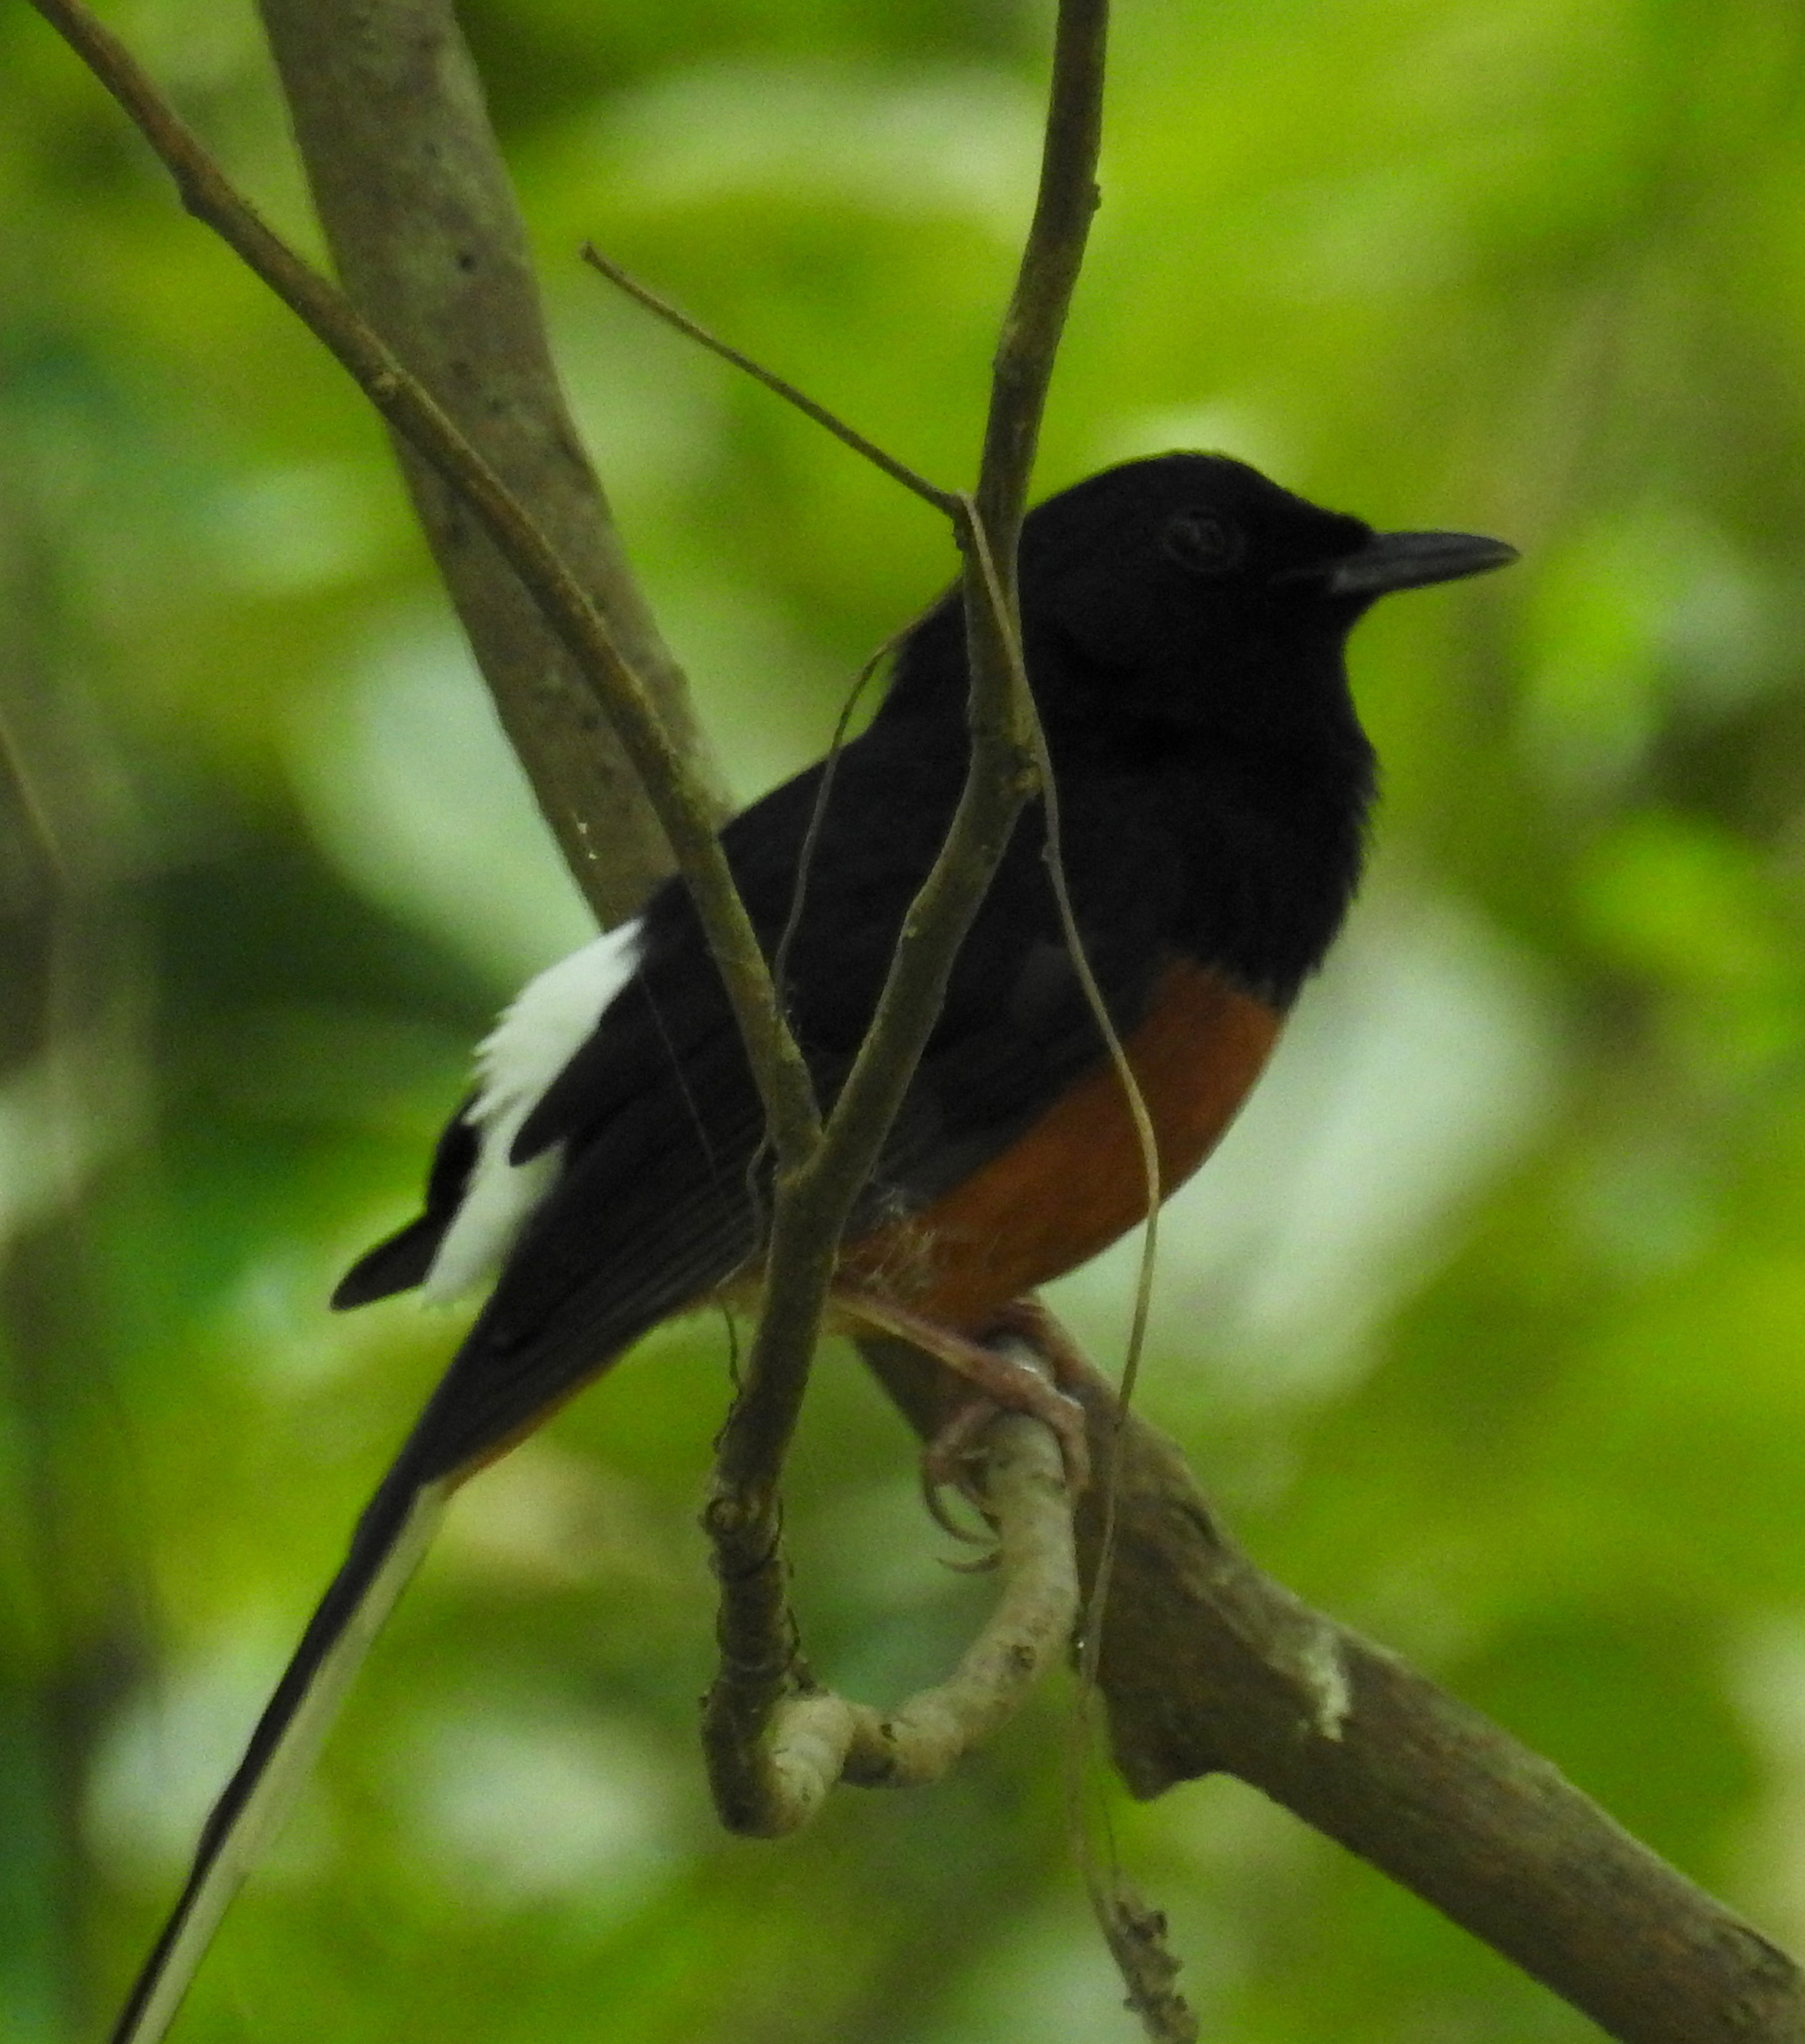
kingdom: Animalia
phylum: Chordata
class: Aves
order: Passeriformes
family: Muscicapidae
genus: Copsychus
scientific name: Copsychus malabaricus
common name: White-rumped shama
